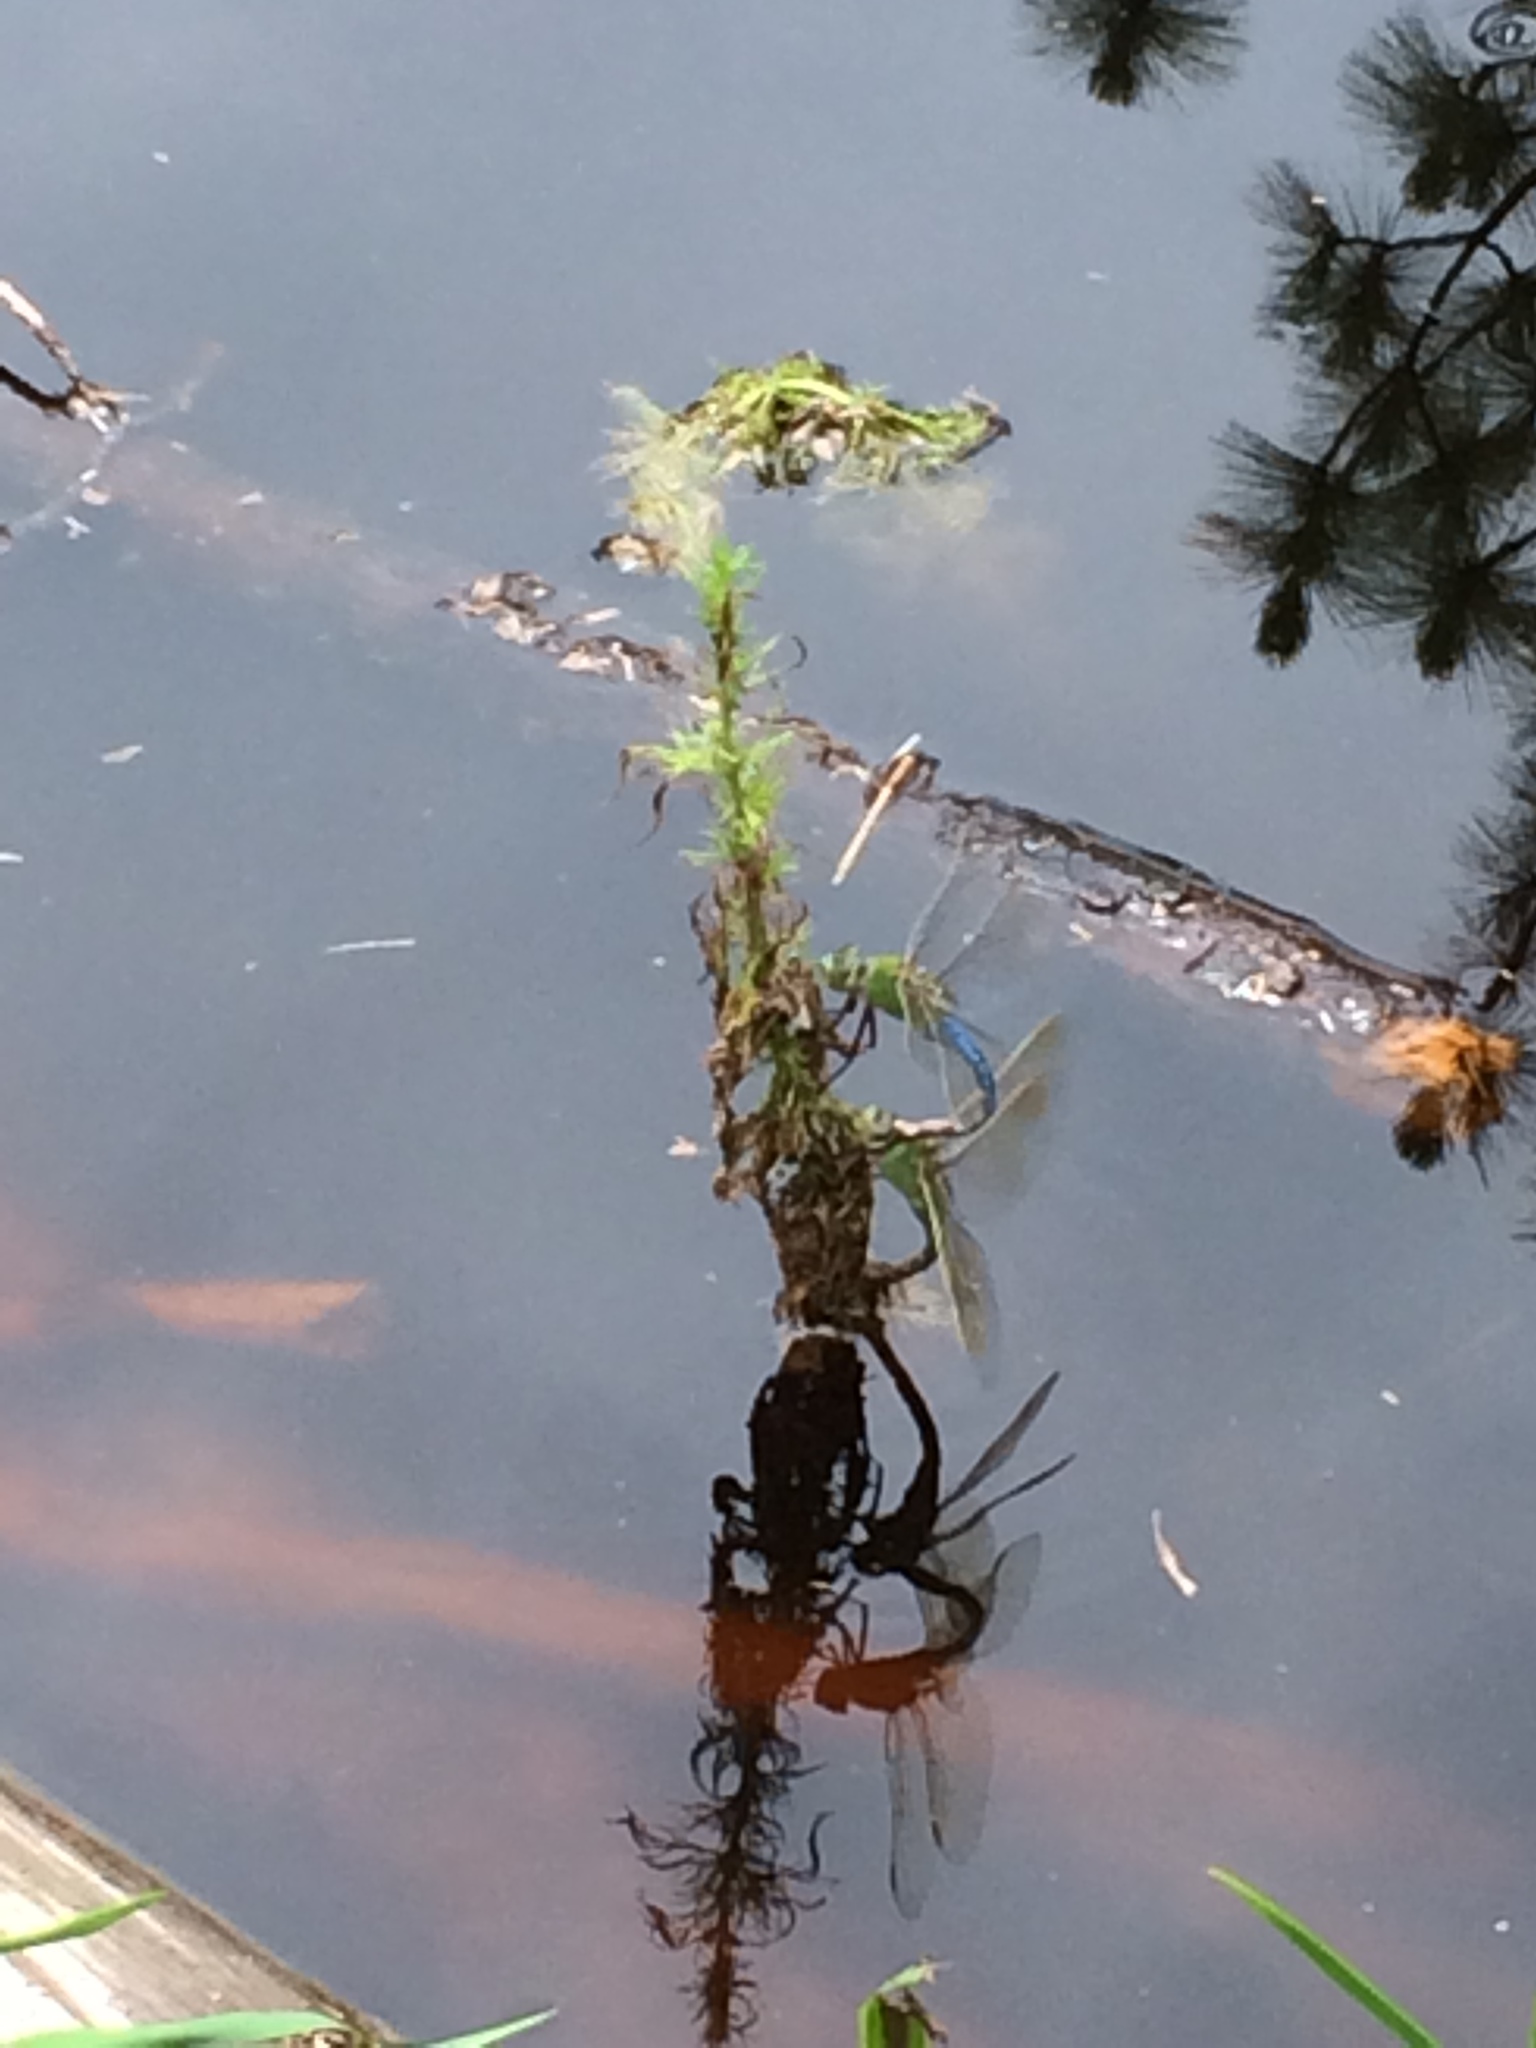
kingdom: Animalia
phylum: Arthropoda
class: Insecta
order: Odonata
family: Aeshnidae
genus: Anax
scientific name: Anax junius
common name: Common green darner
